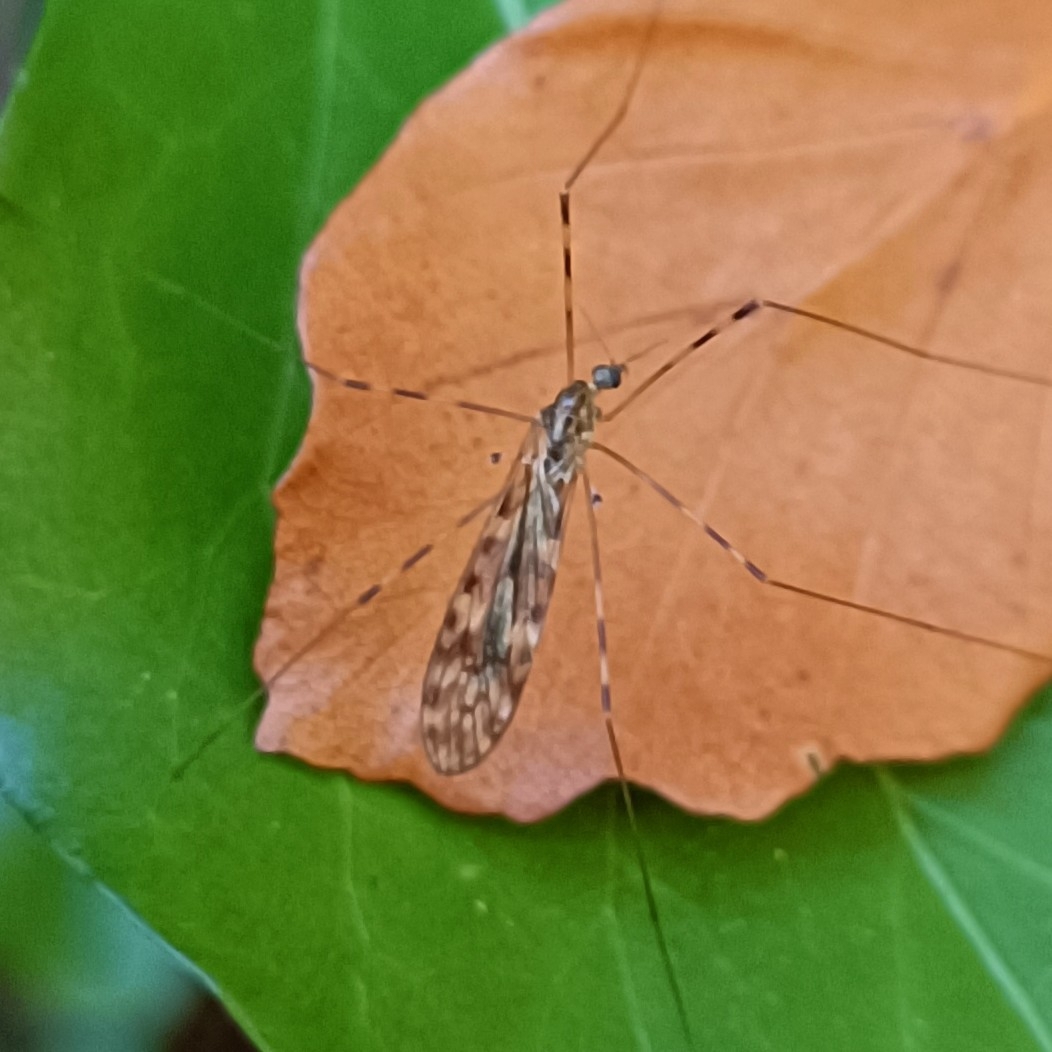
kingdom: Animalia
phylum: Arthropoda
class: Insecta
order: Diptera
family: Limoniidae
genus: Limonia
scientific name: Limonia nubeculosa
